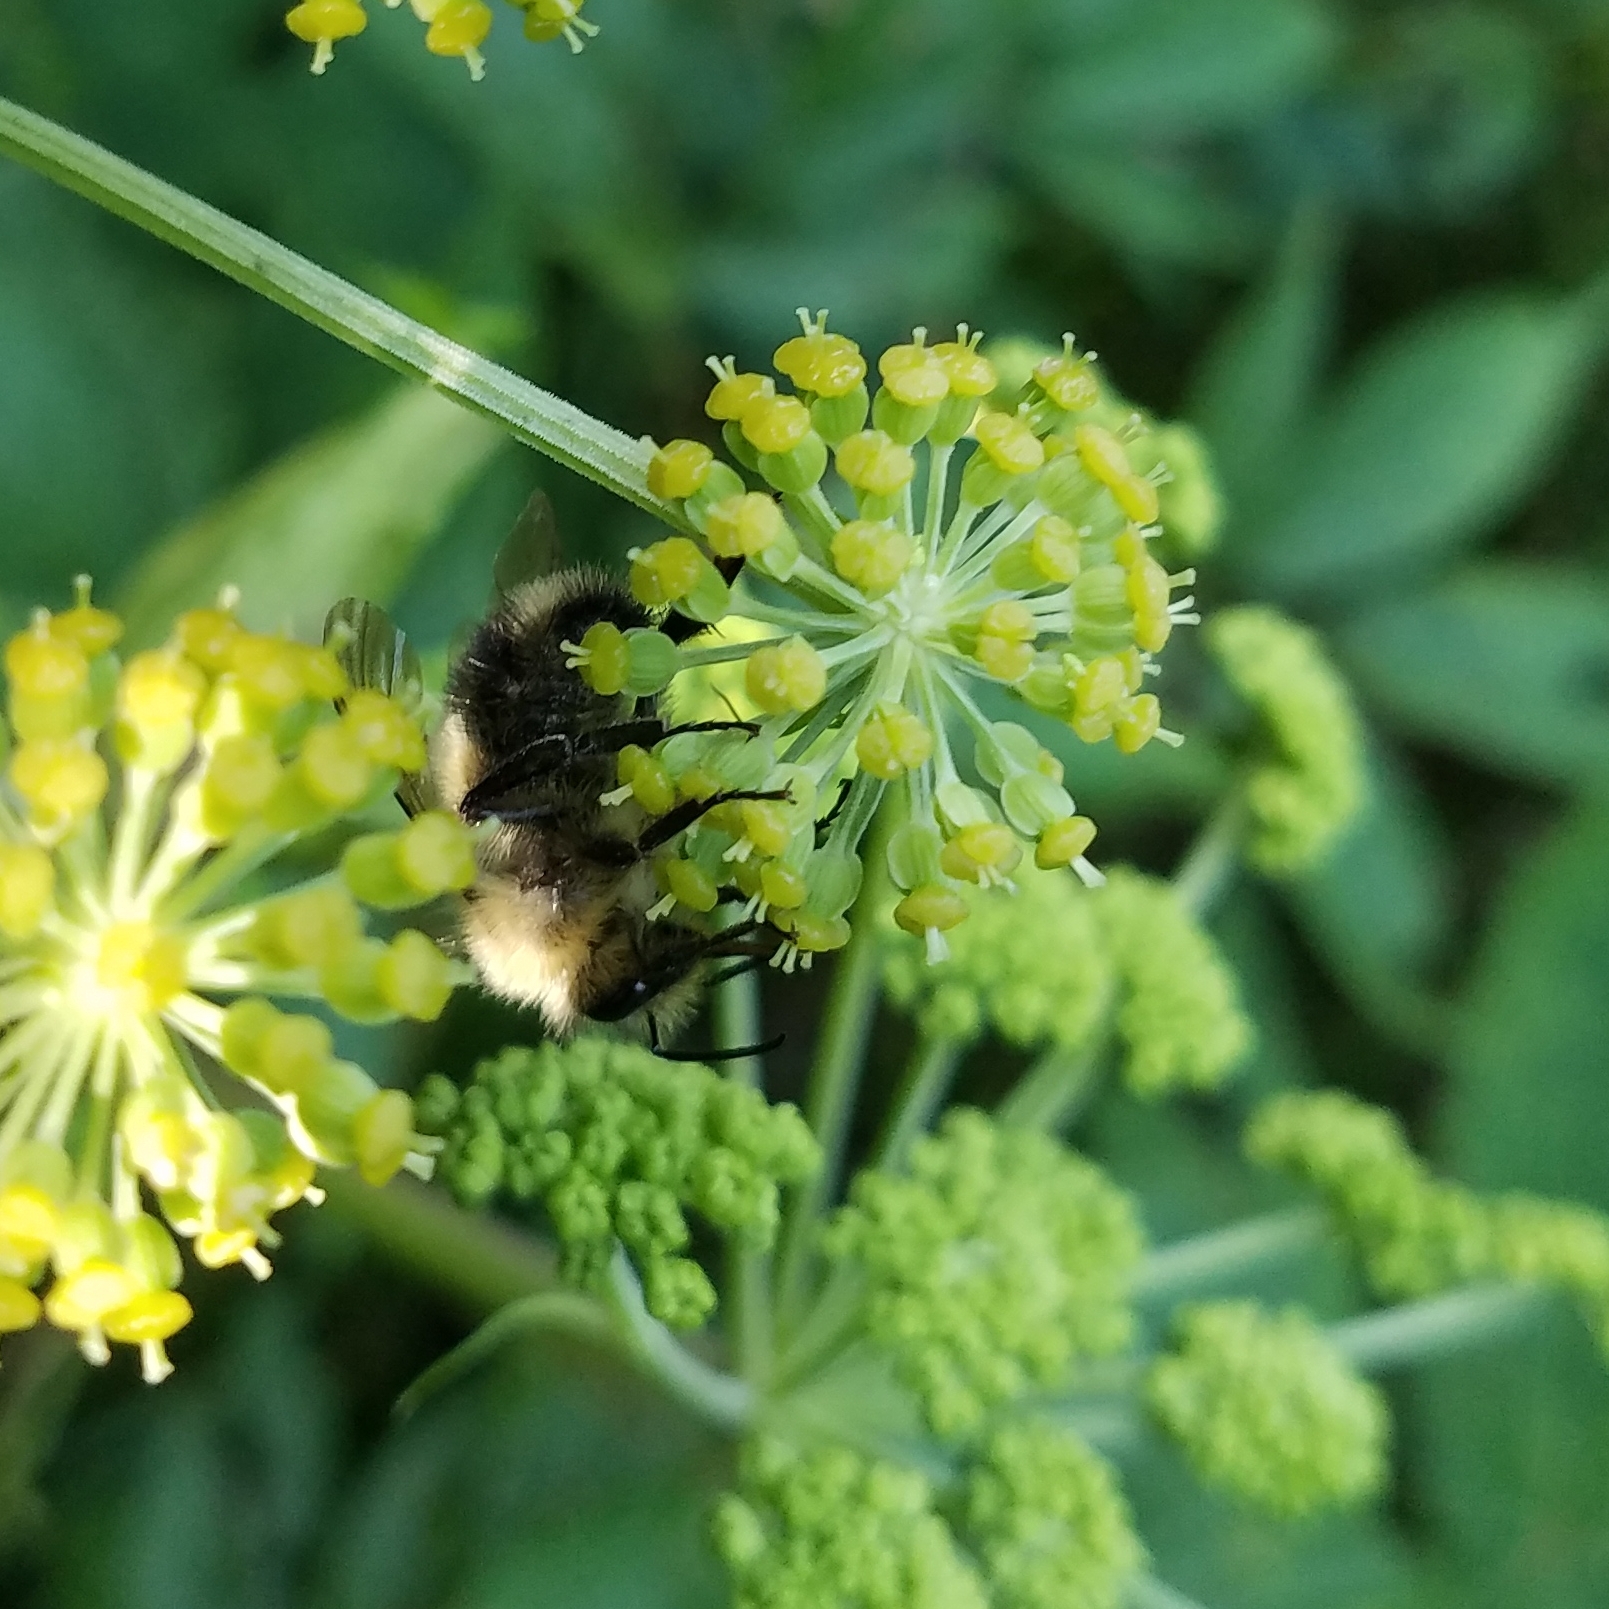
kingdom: Animalia
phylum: Arthropoda
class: Insecta
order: Hymenoptera
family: Apidae
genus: Pyrobombus
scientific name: Pyrobombus
